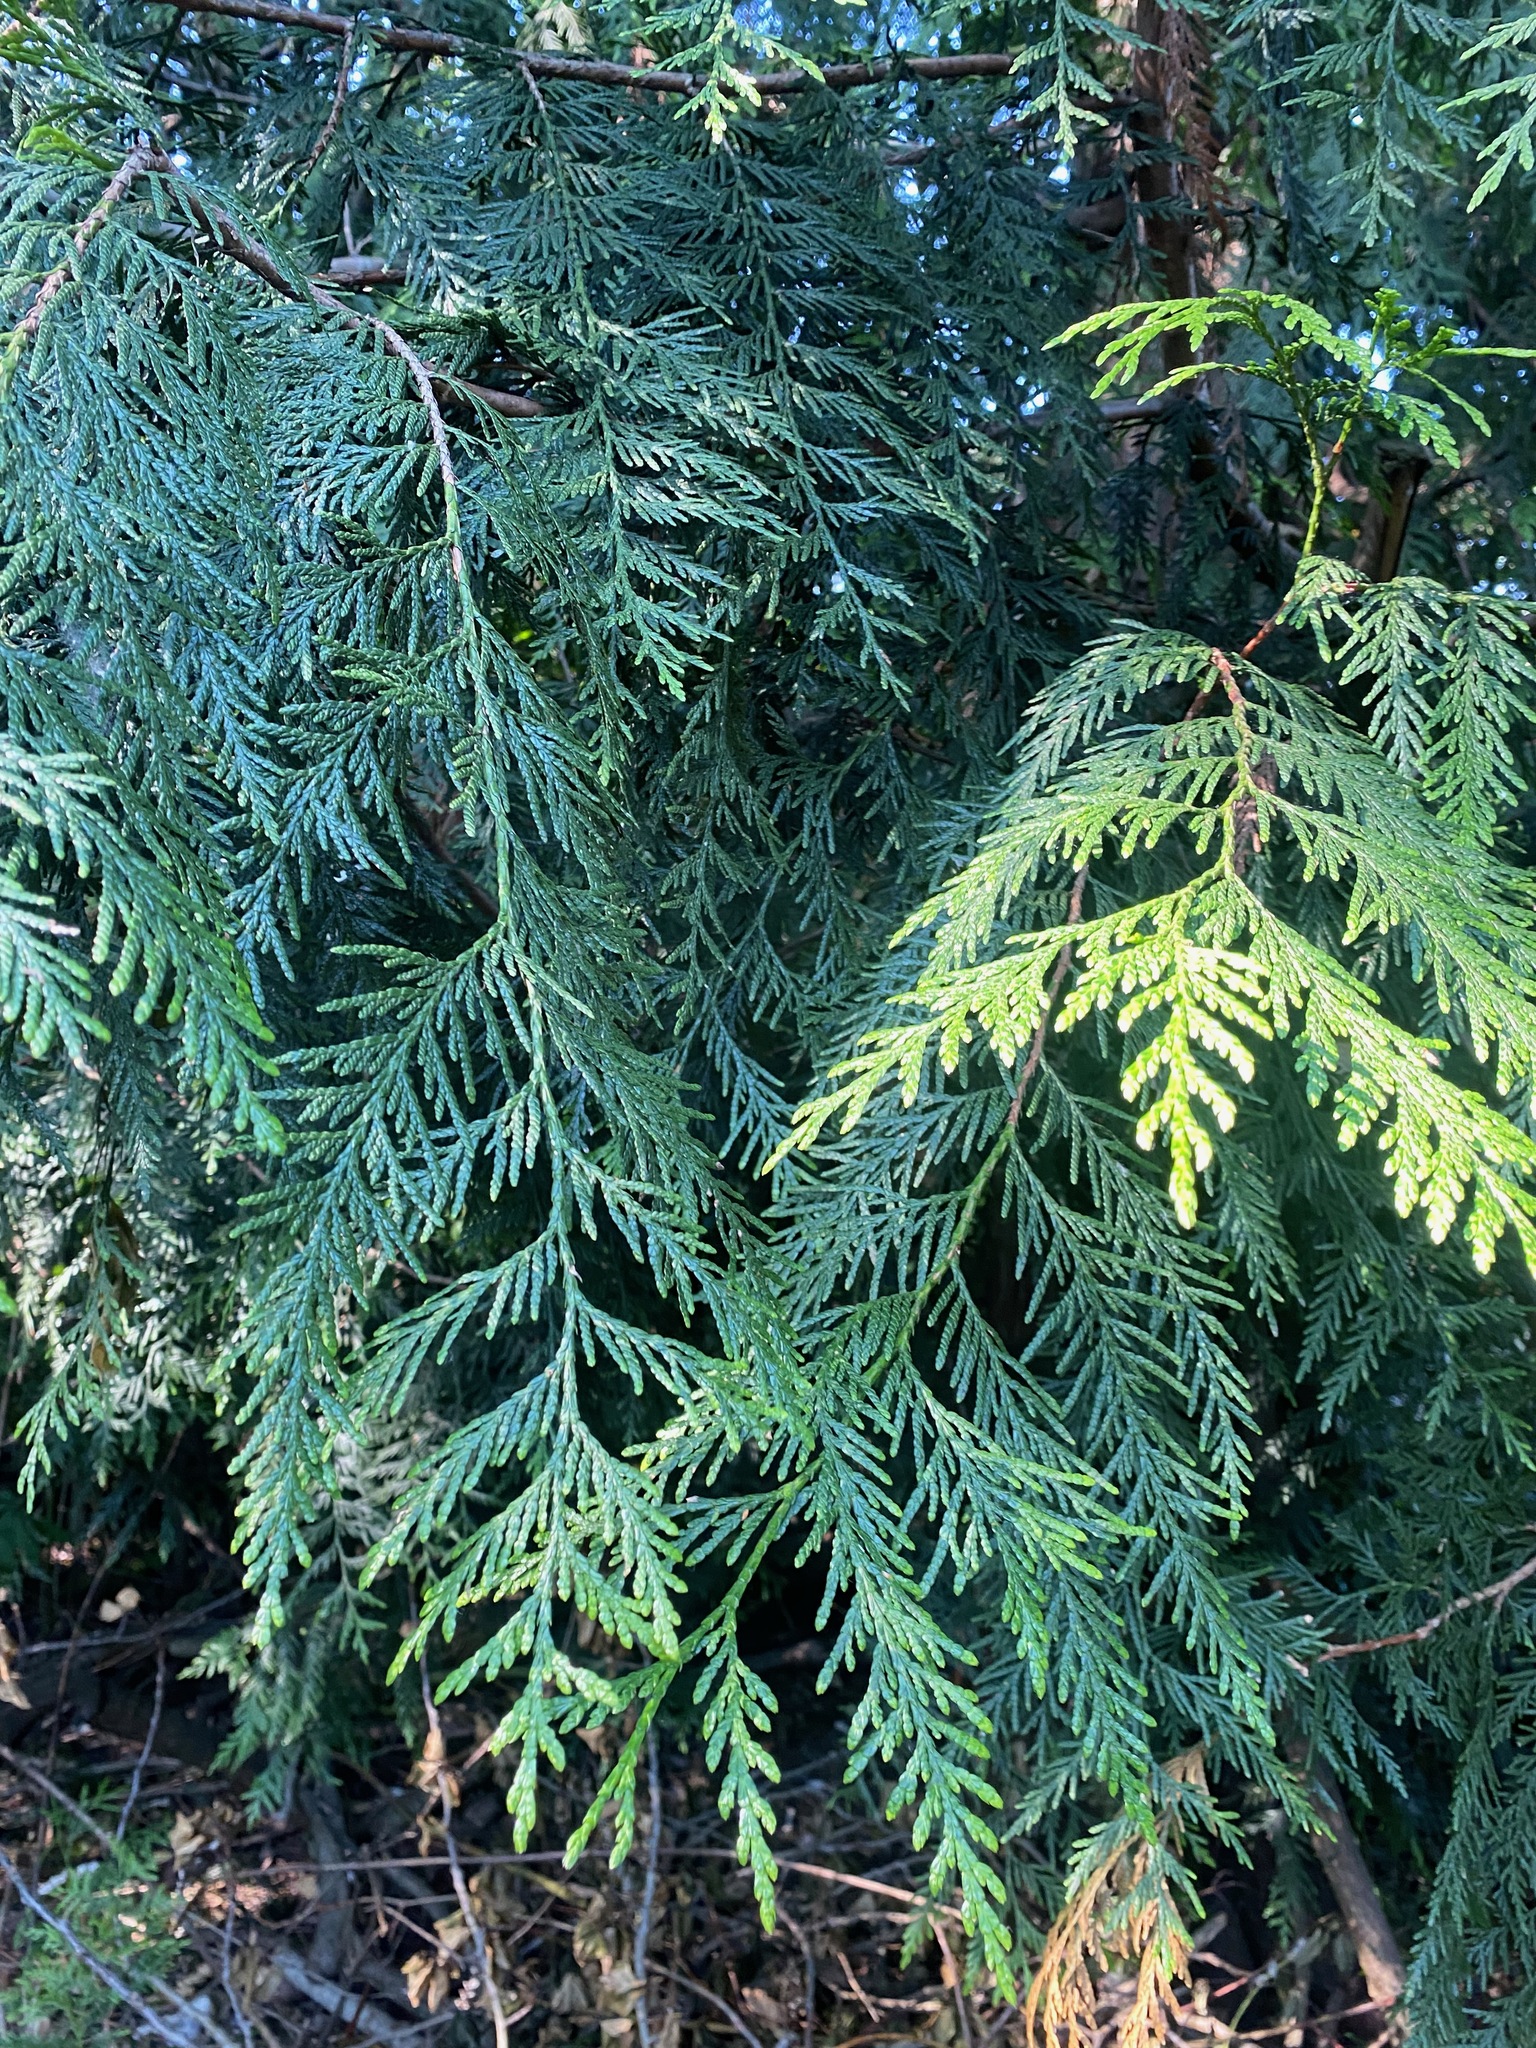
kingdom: Plantae
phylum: Tracheophyta
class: Pinopsida
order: Pinales
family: Cupressaceae
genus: Thuja
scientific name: Thuja plicata
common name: Western red-cedar
